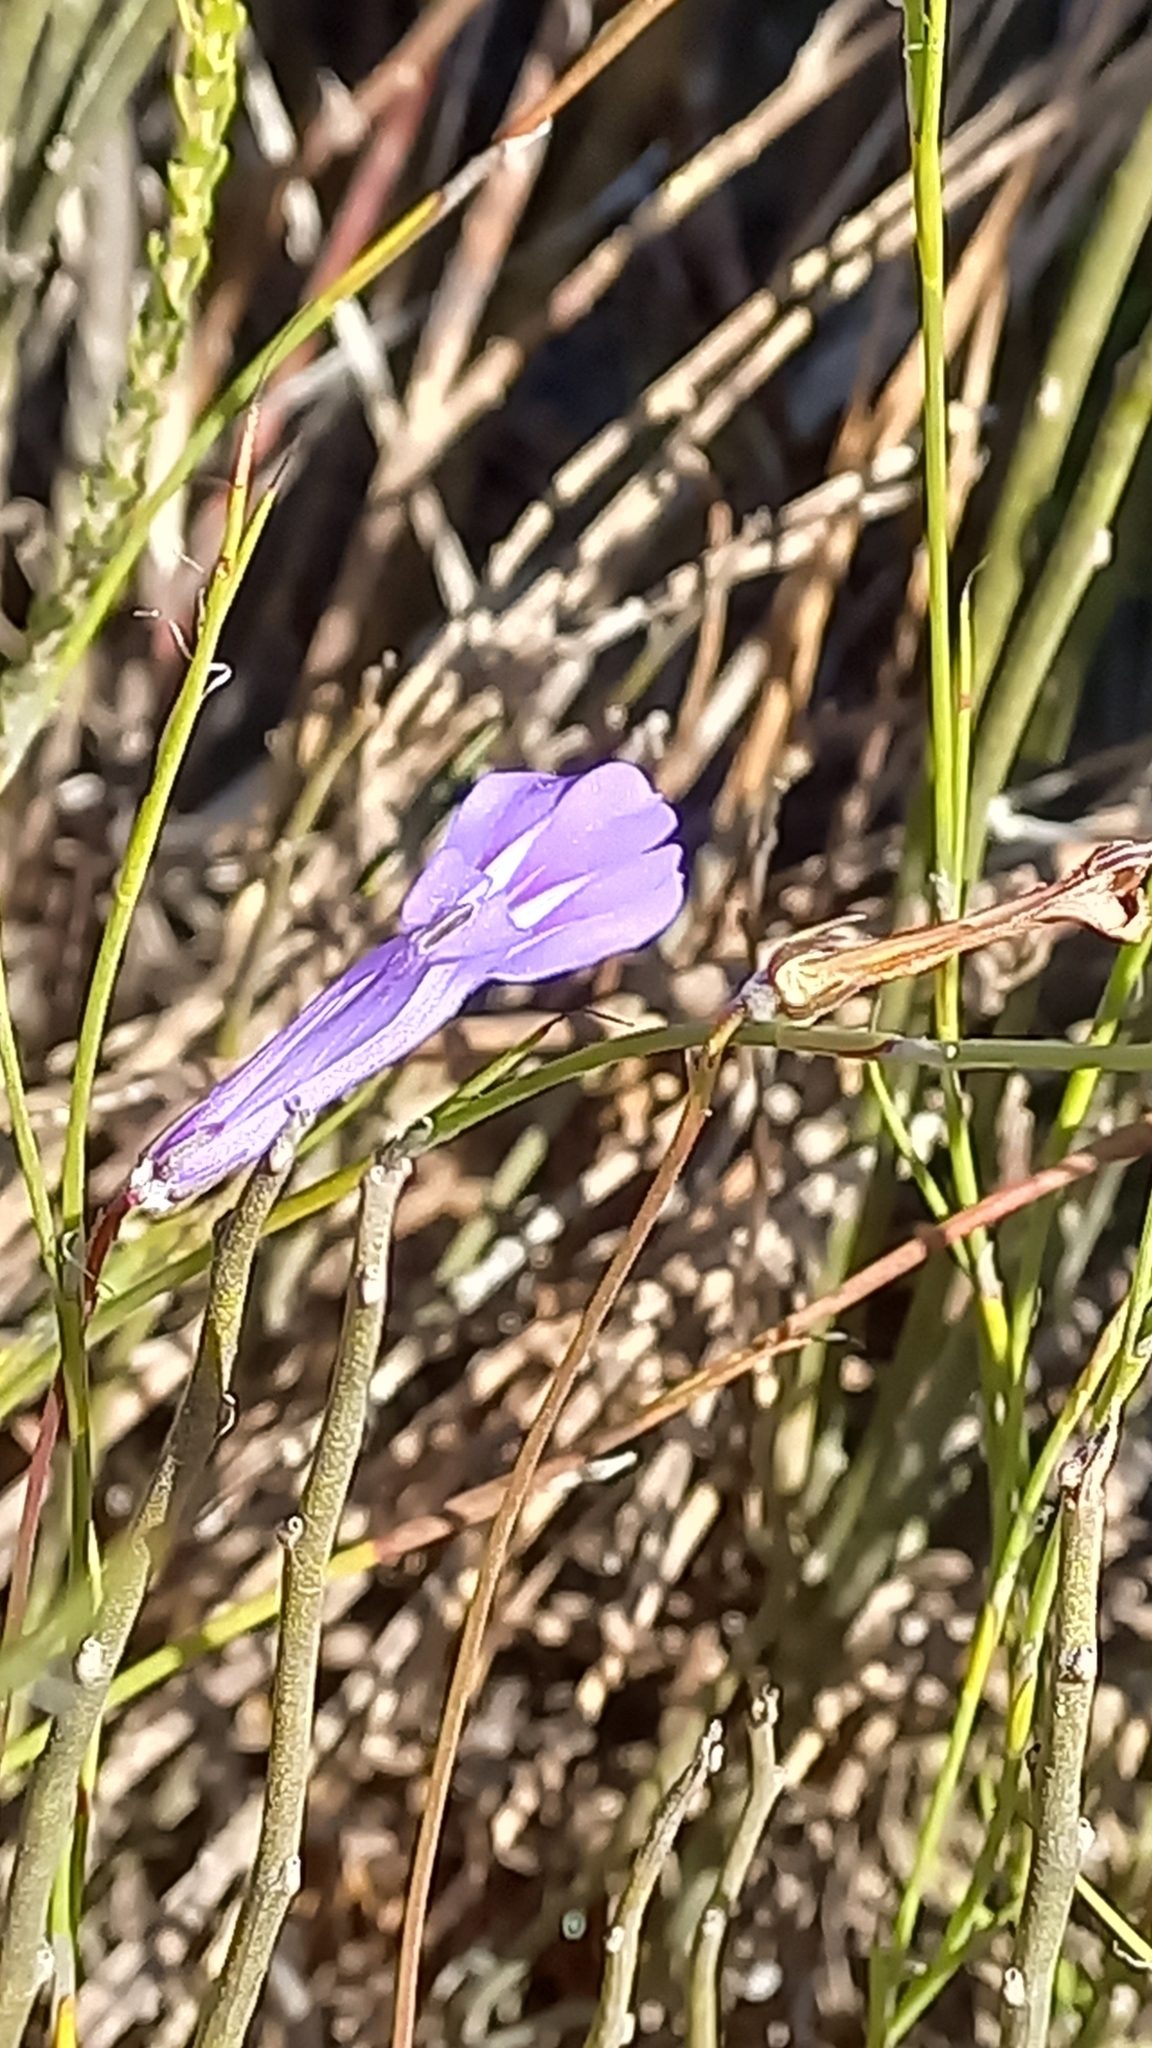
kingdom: Plantae
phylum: Tracheophyta
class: Magnoliopsida
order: Asterales
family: Campanulaceae
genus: Lobelia
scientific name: Lobelia coronopifolia
